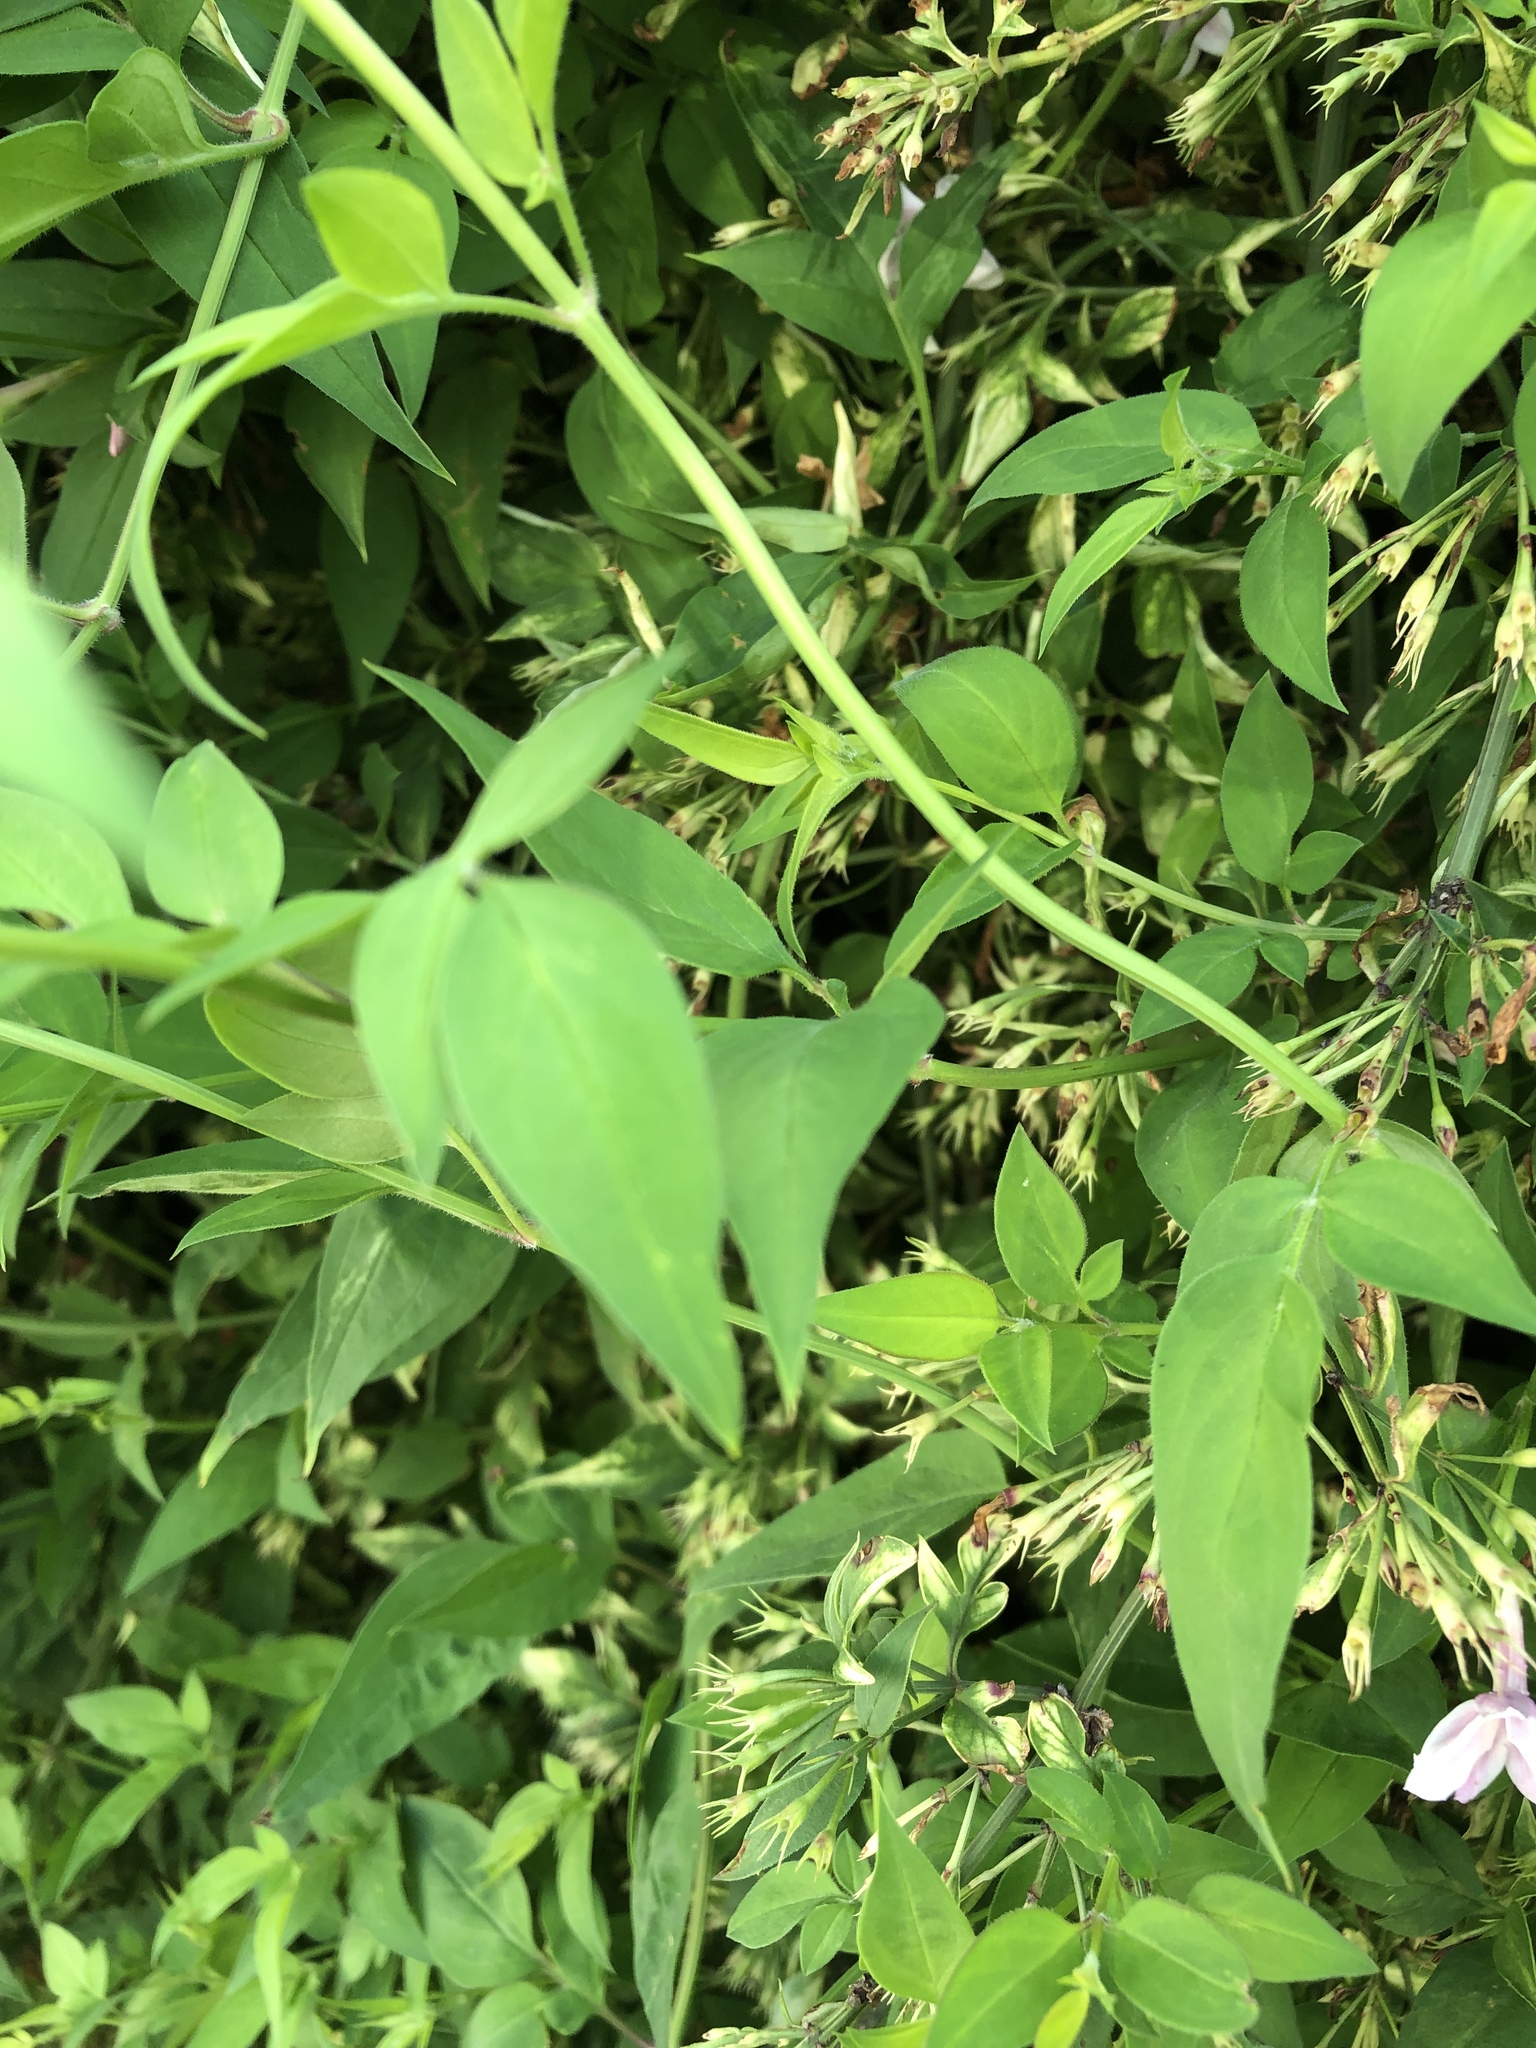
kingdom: Plantae
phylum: Tracheophyta
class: Magnoliopsida
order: Lamiales
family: Oleaceae
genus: Jasminum
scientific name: Jasminum stephanense
